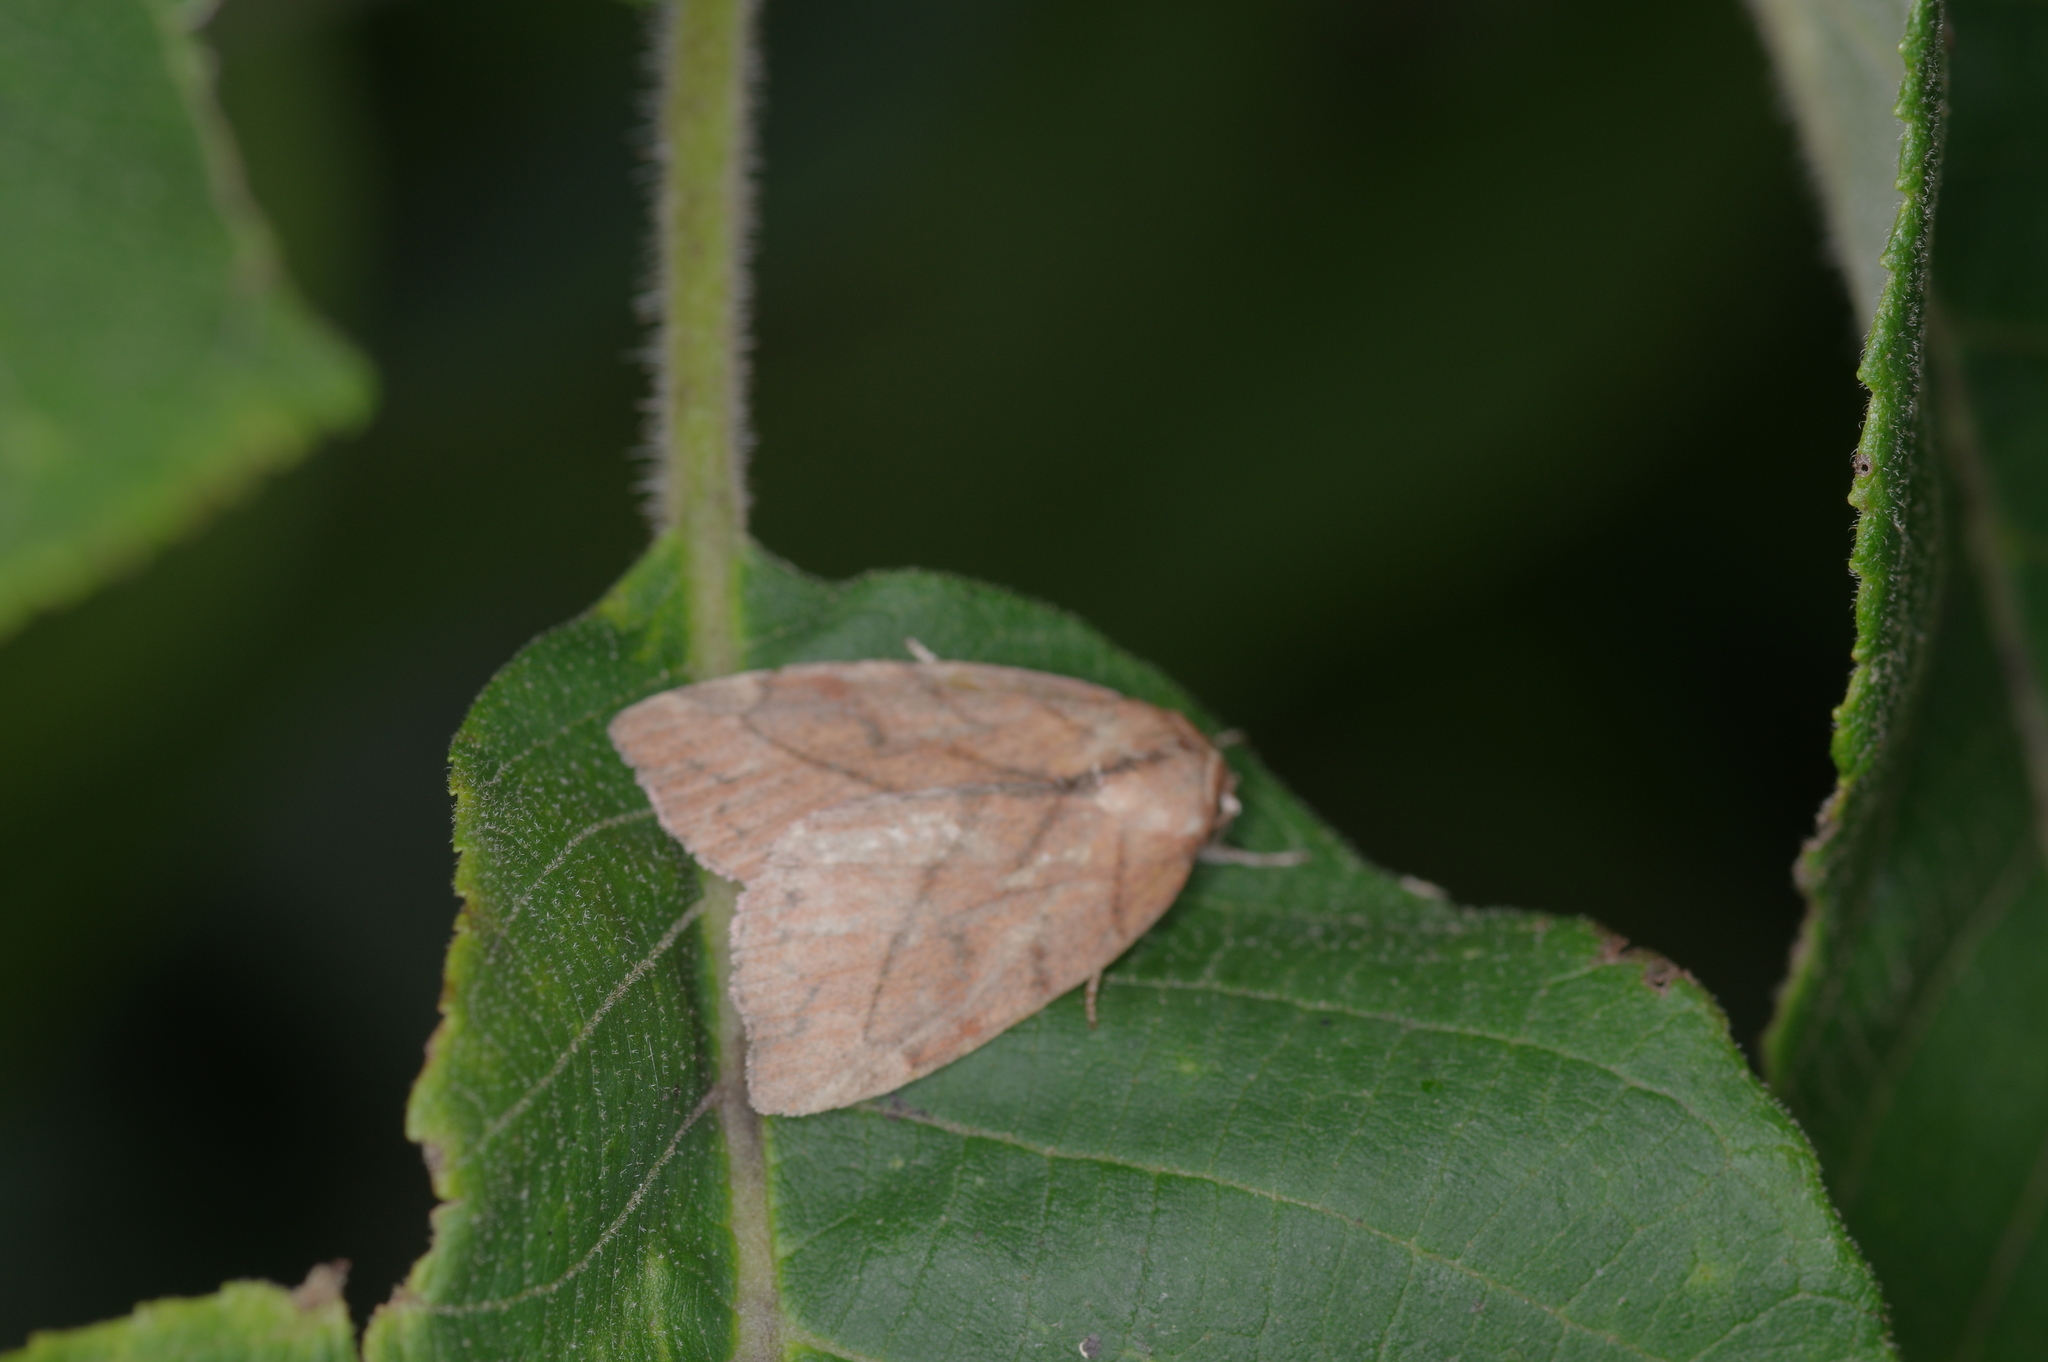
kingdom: Animalia
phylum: Arthropoda
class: Insecta
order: Lepidoptera
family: Nolidae
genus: Macrochthonia
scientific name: Macrochthonia fervens
